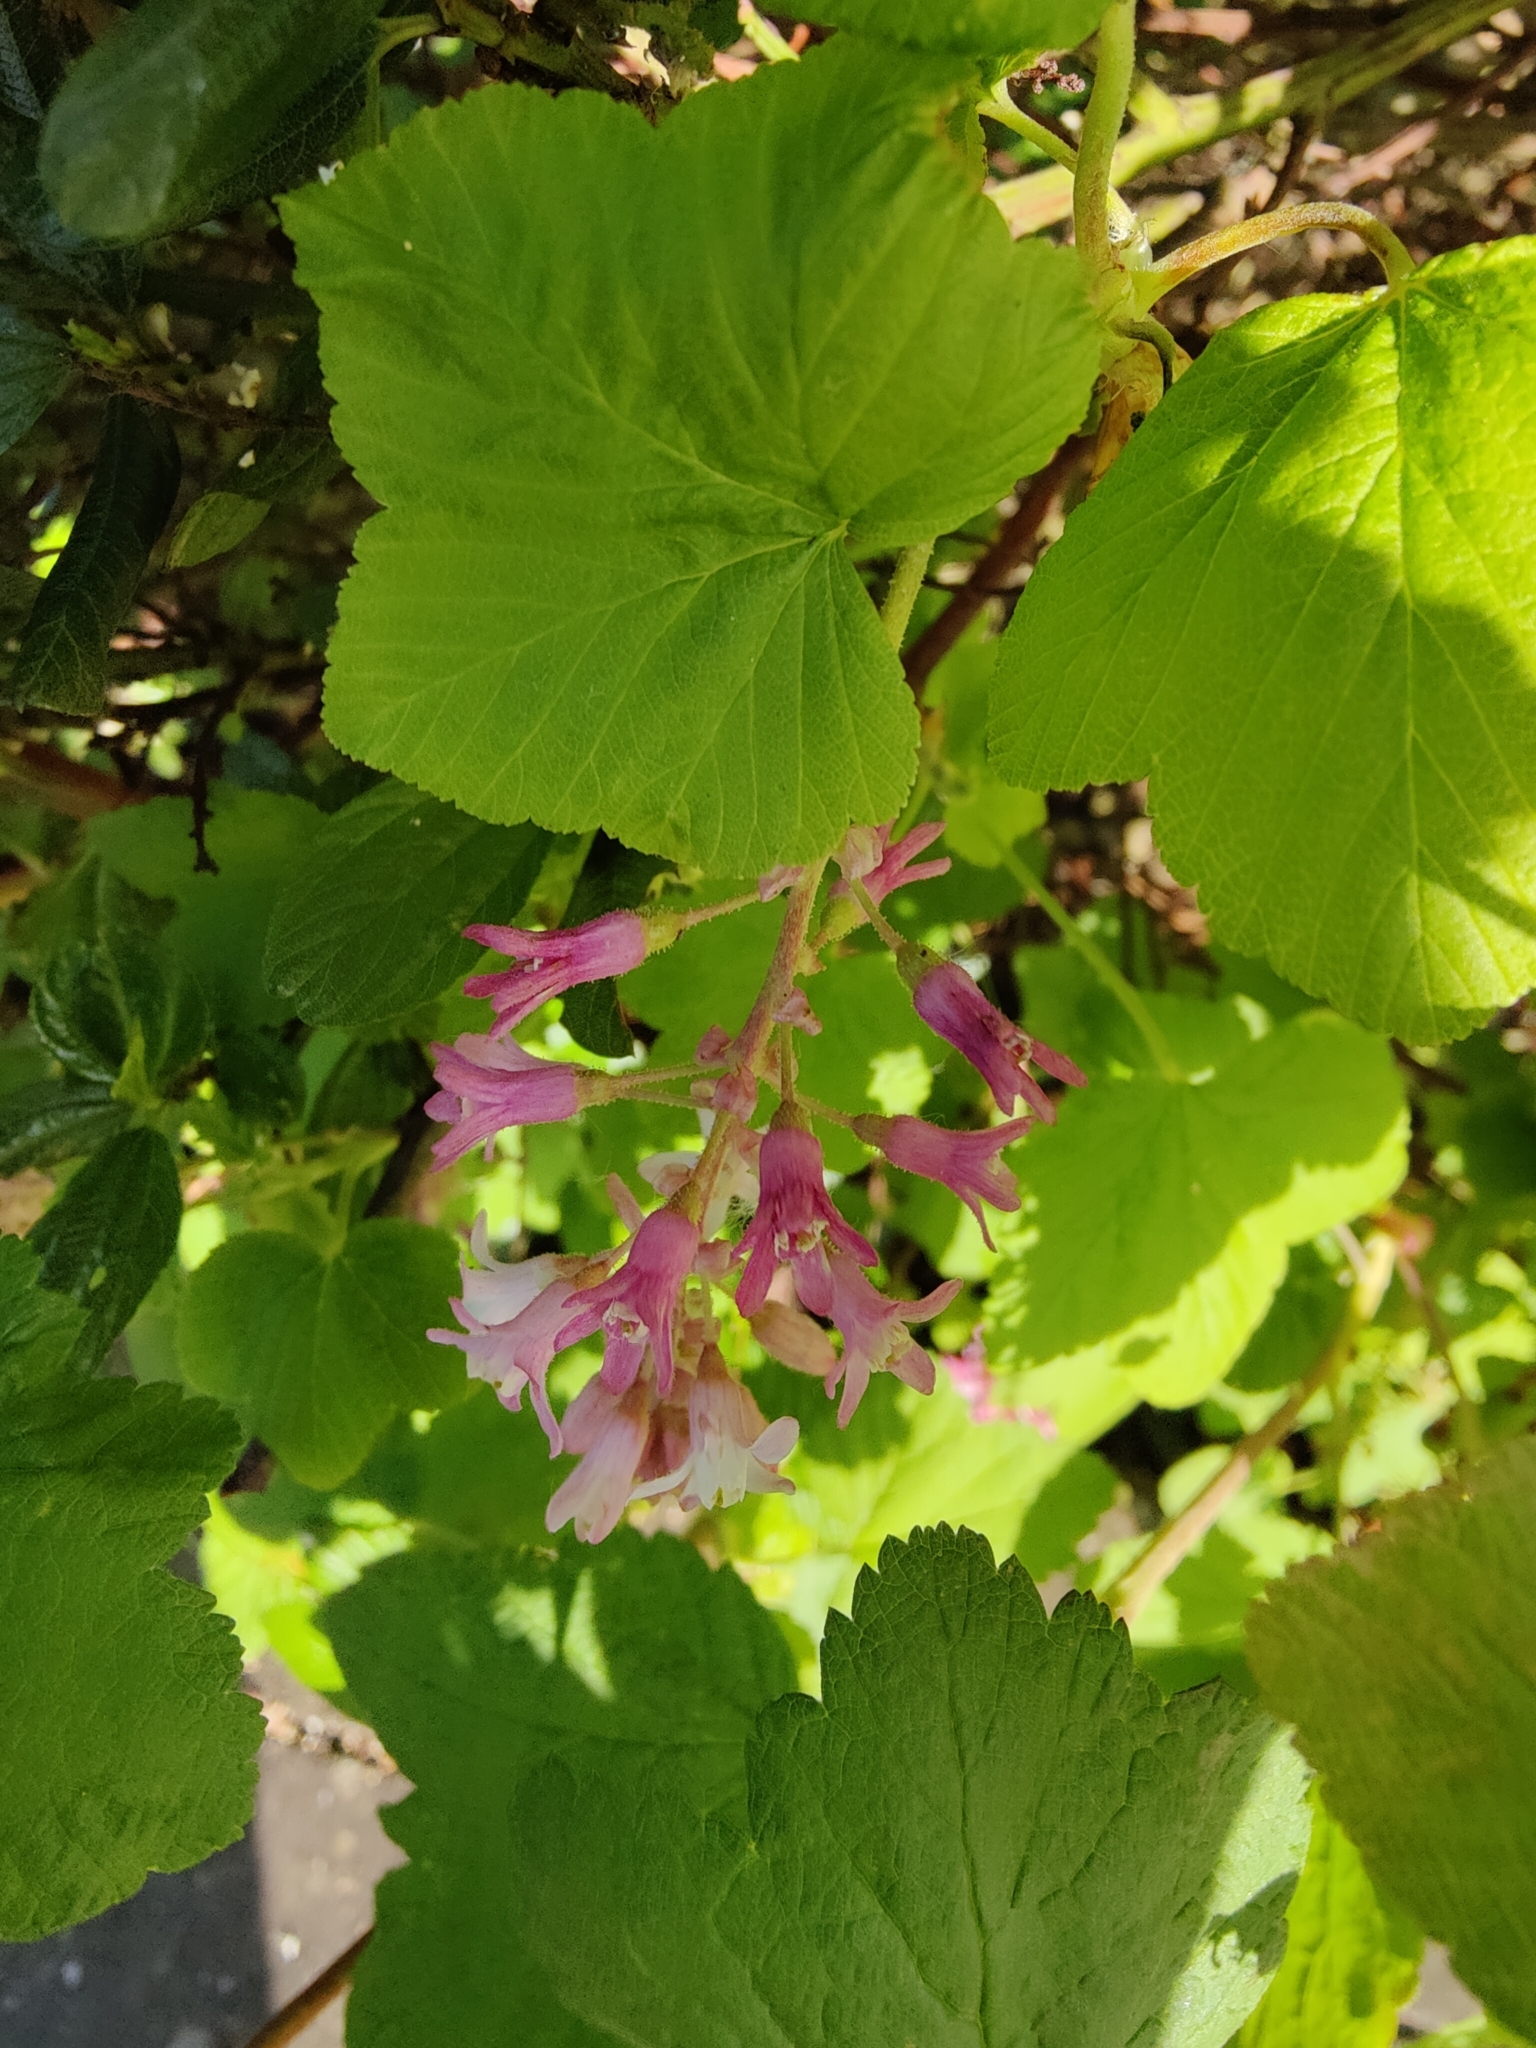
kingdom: Plantae
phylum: Tracheophyta
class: Magnoliopsida
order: Saxifragales
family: Grossulariaceae
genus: Ribes
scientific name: Ribes sanguineum
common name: Flowering currant
